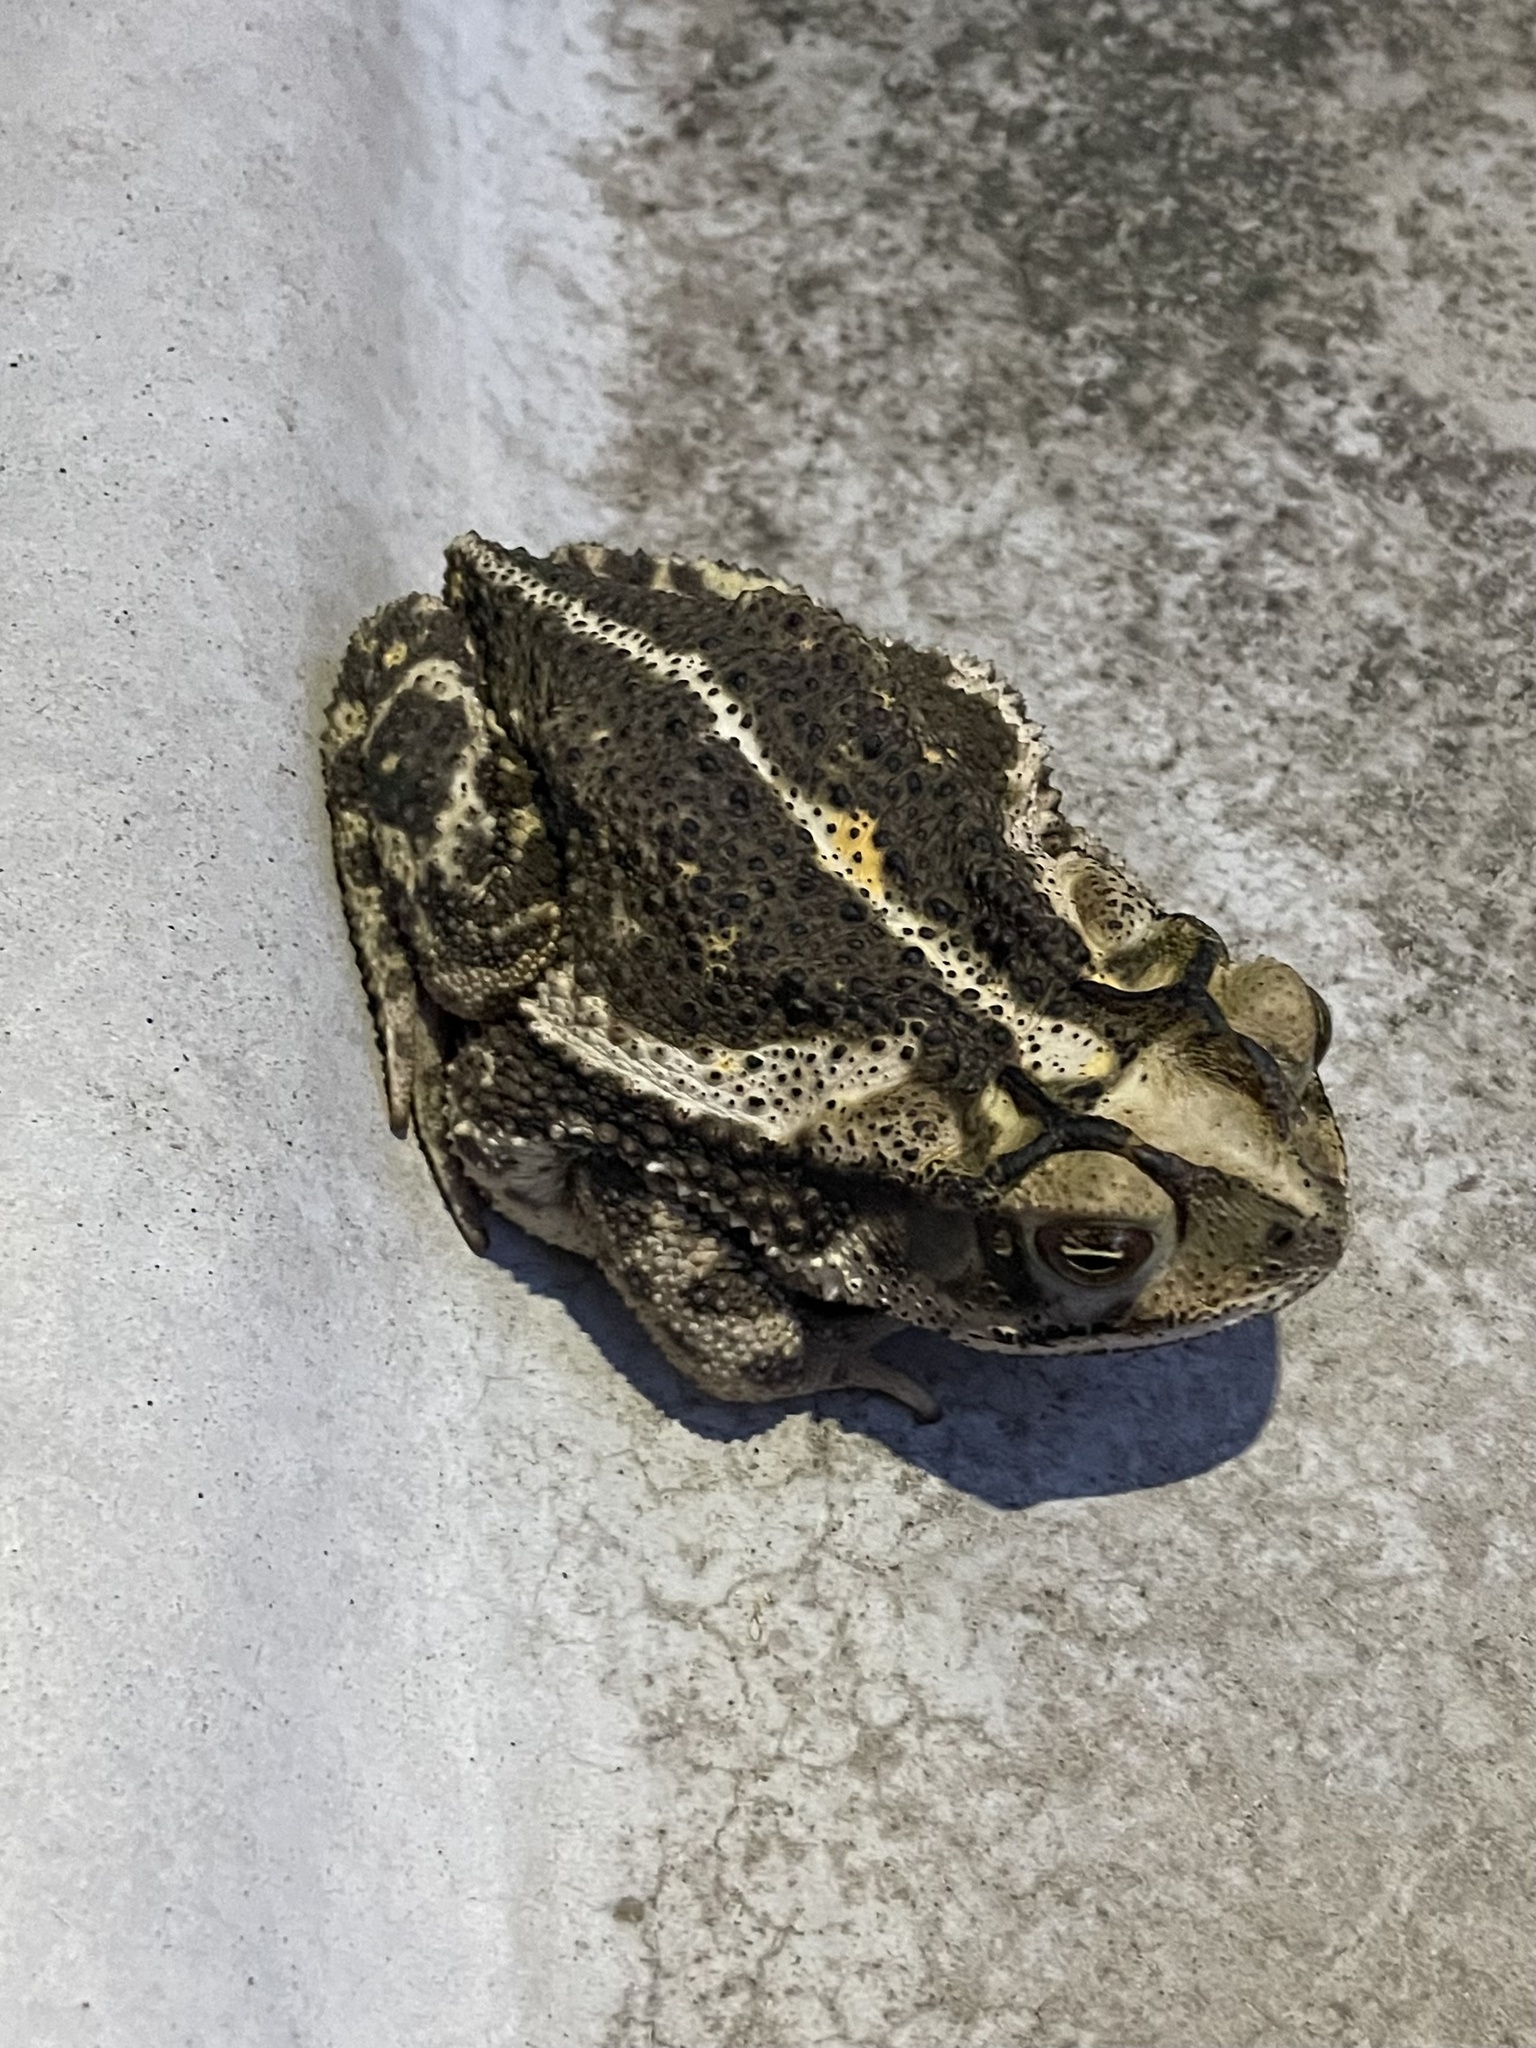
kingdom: Animalia
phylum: Chordata
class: Amphibia
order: Anura
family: Bufonidae
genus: Incilius
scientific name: Incilius nebulifer
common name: Gulf coast toad
